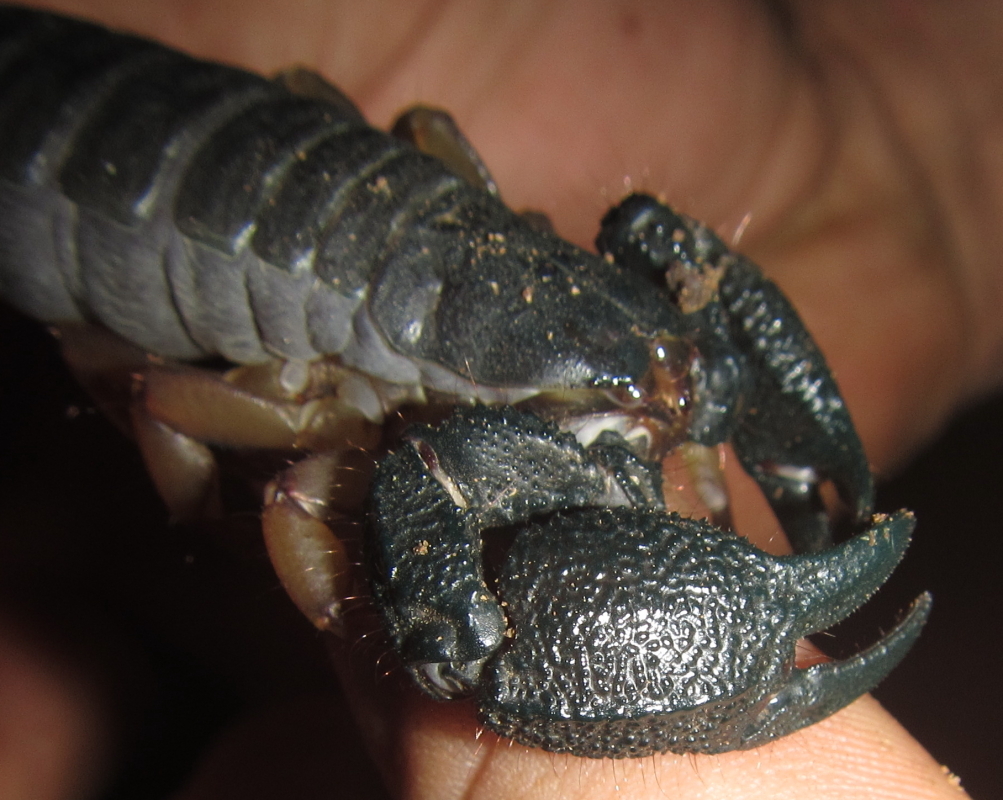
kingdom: Animalia
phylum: Arthropoda
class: Arachnida
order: Scorpiones
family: Hormuridae
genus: Opisthacanthus
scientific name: Opisthacanthus asper
